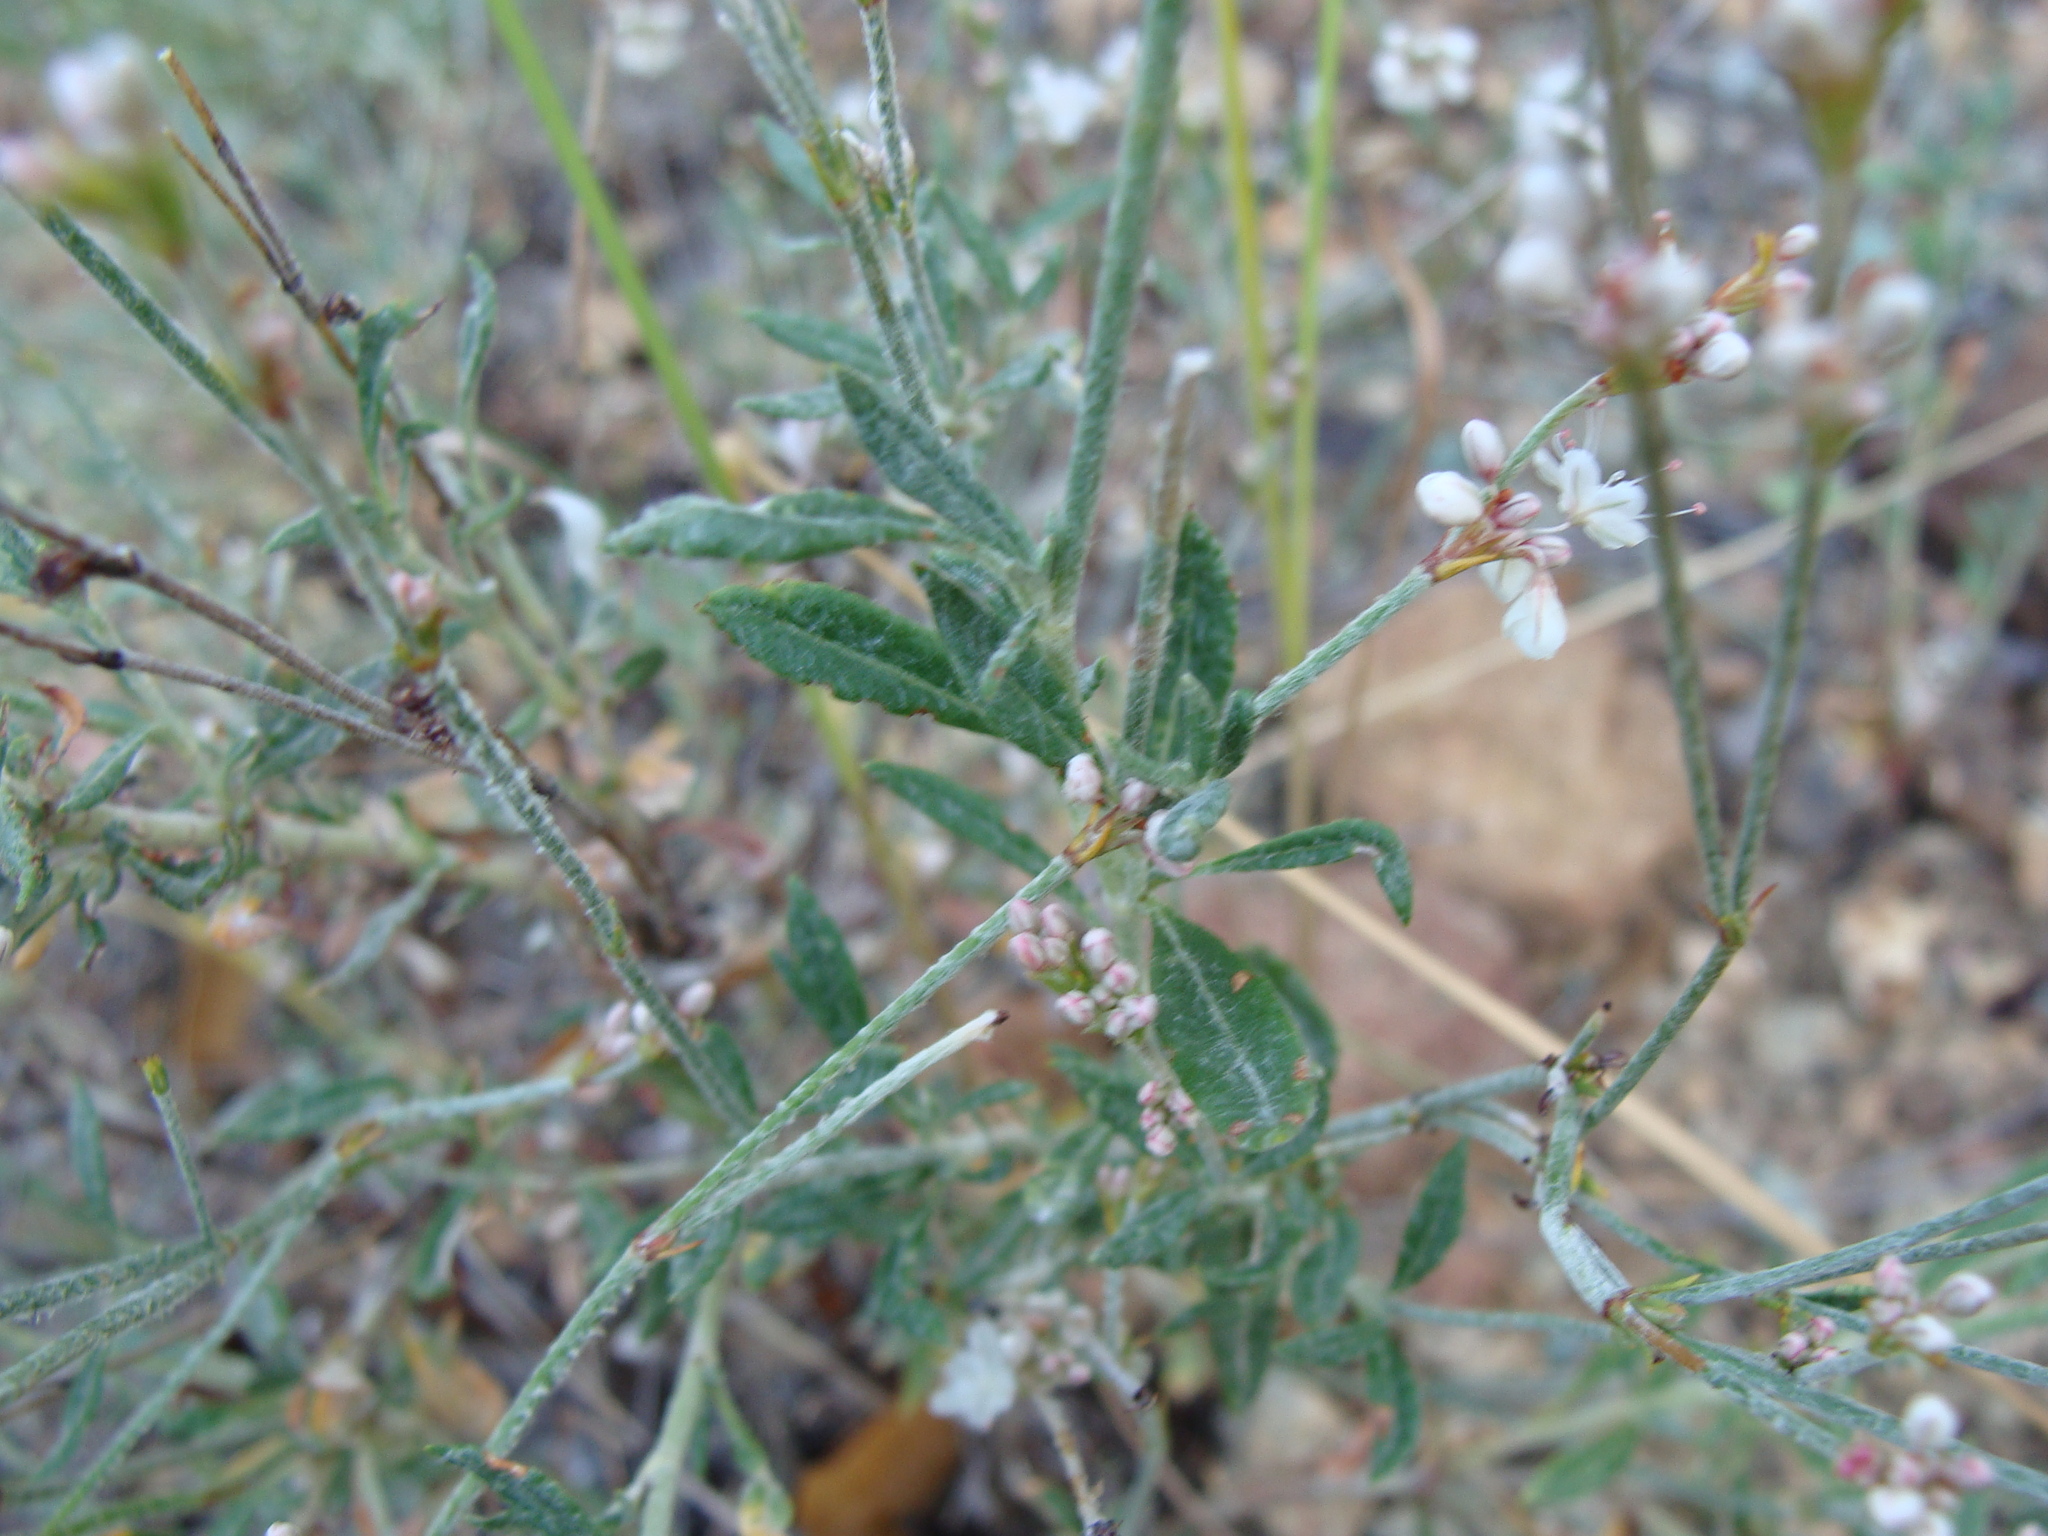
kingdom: Plantae
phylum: Tracheophyta
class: Magnoliopsida
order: Caryophyllales
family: Polygonaceae
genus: Eriogonum
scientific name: Eriogonum wrightii
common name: Bastard-sage
